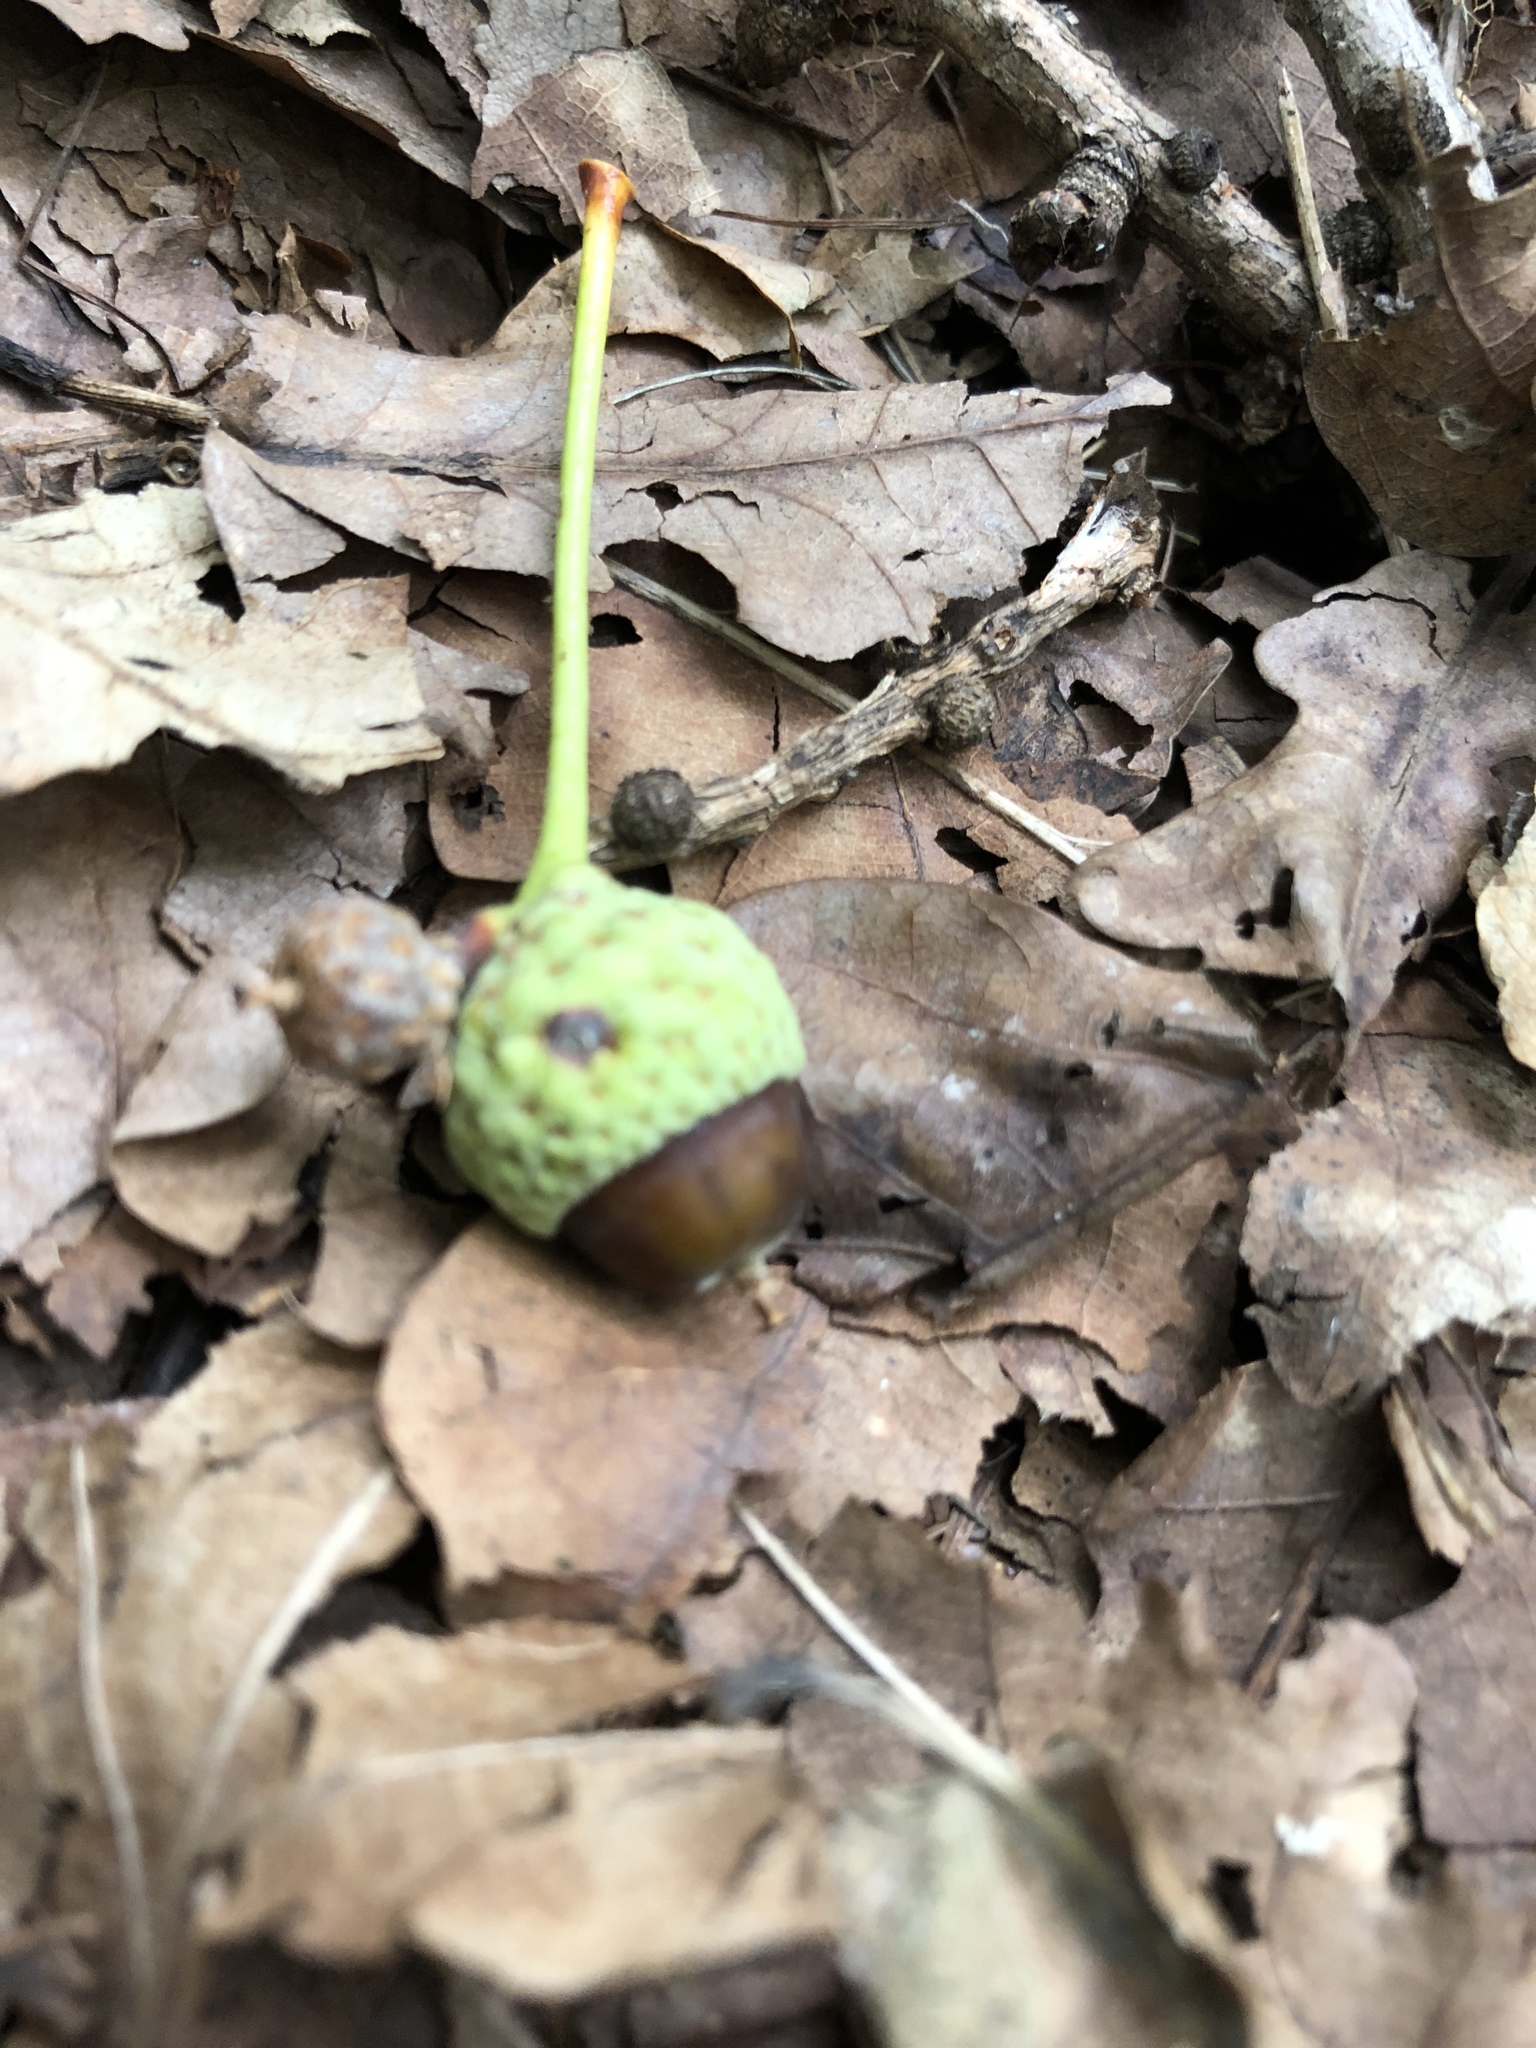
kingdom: Plantae
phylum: Tracheophyta
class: Magnoliopsida
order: Fagales
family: Fagaceae
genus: Quercus
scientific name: Quercus robur
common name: Pedunculate oak
